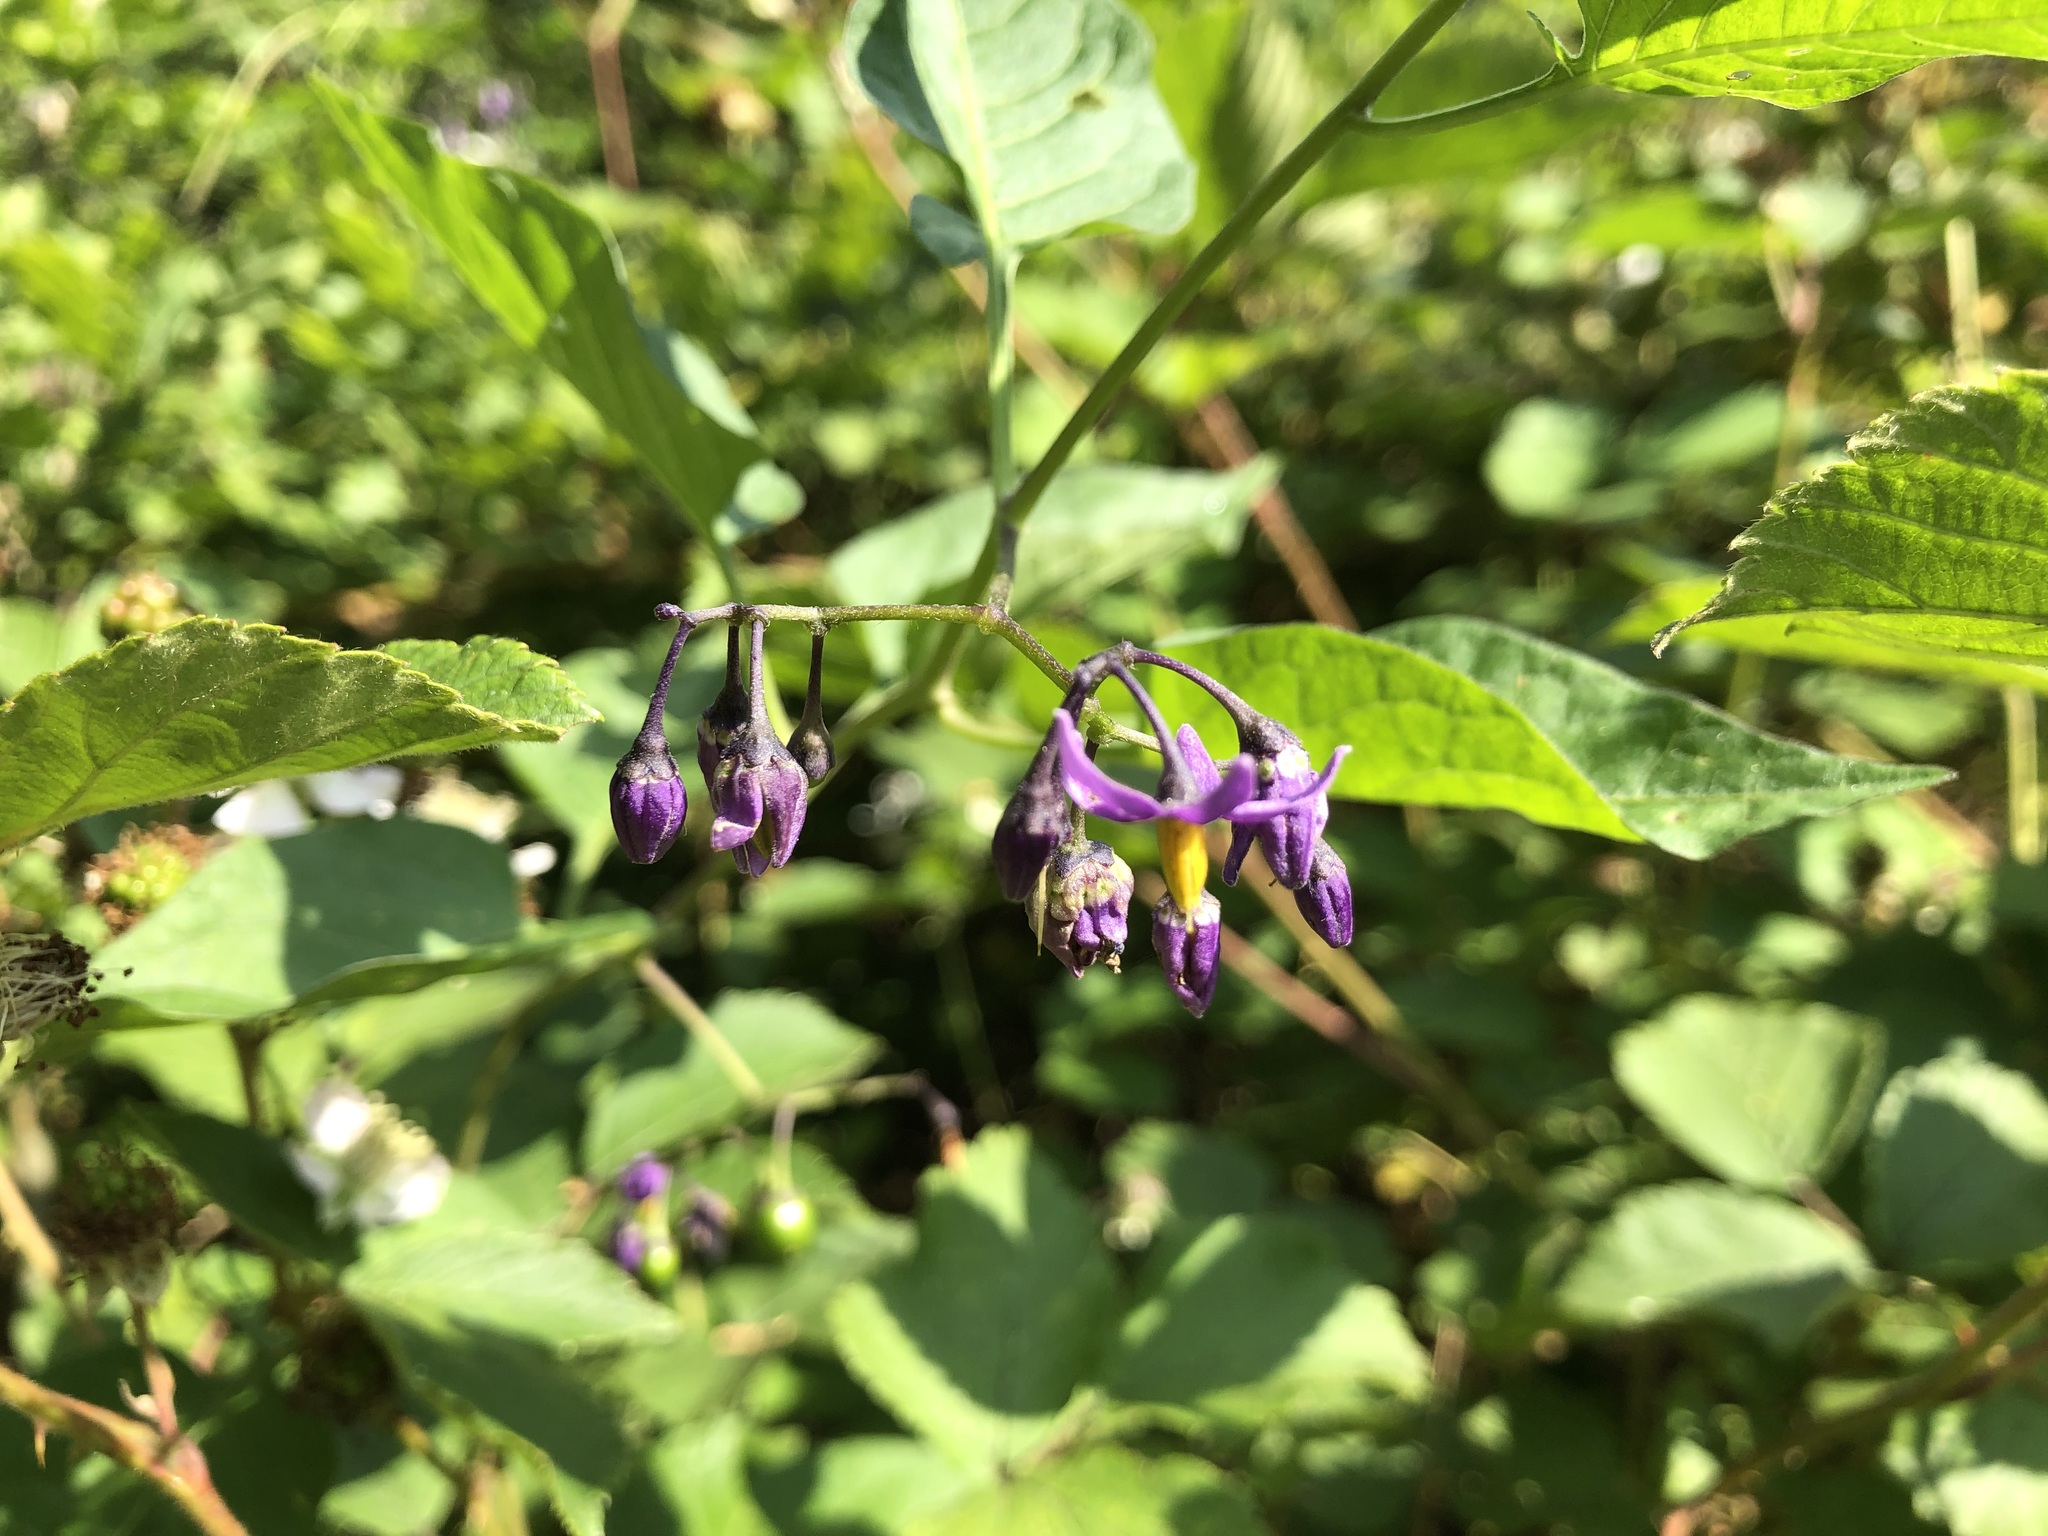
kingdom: Plantae
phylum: Tracheophyta
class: Magnoliopsida
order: Solanales
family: Solanaceae
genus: Solanum
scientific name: Solanum dulcamara
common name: Climbing nightshade
